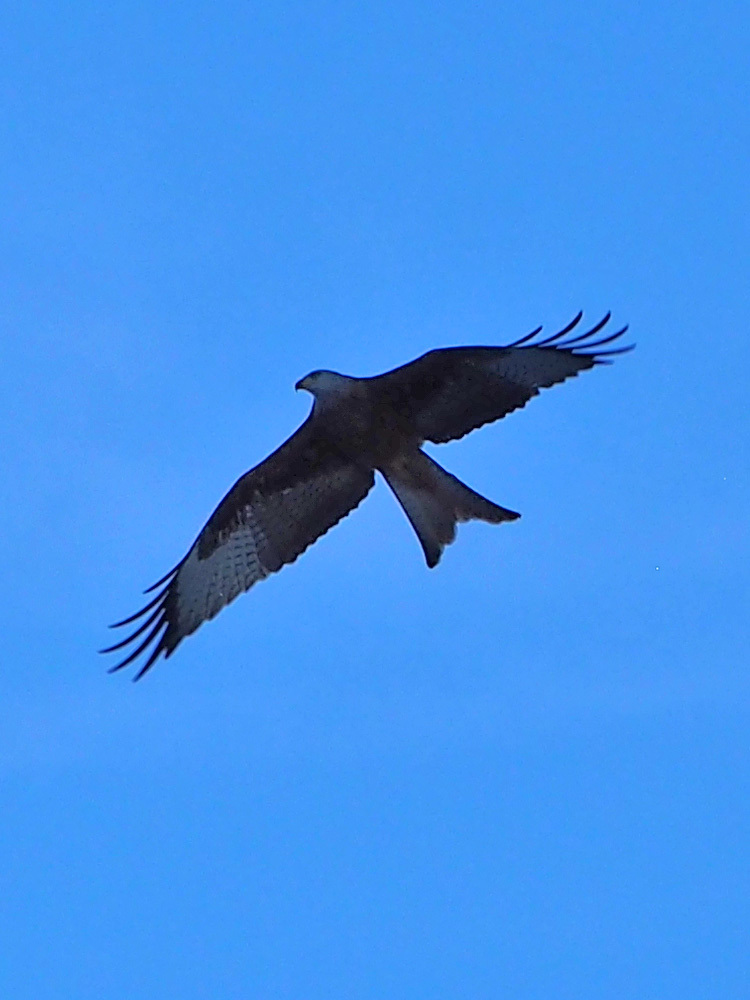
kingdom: Animalia
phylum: Chordata
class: Aves
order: Accipitriformes
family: Accipitridae
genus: Milvus
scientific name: Milvus milvus
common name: Red kite
